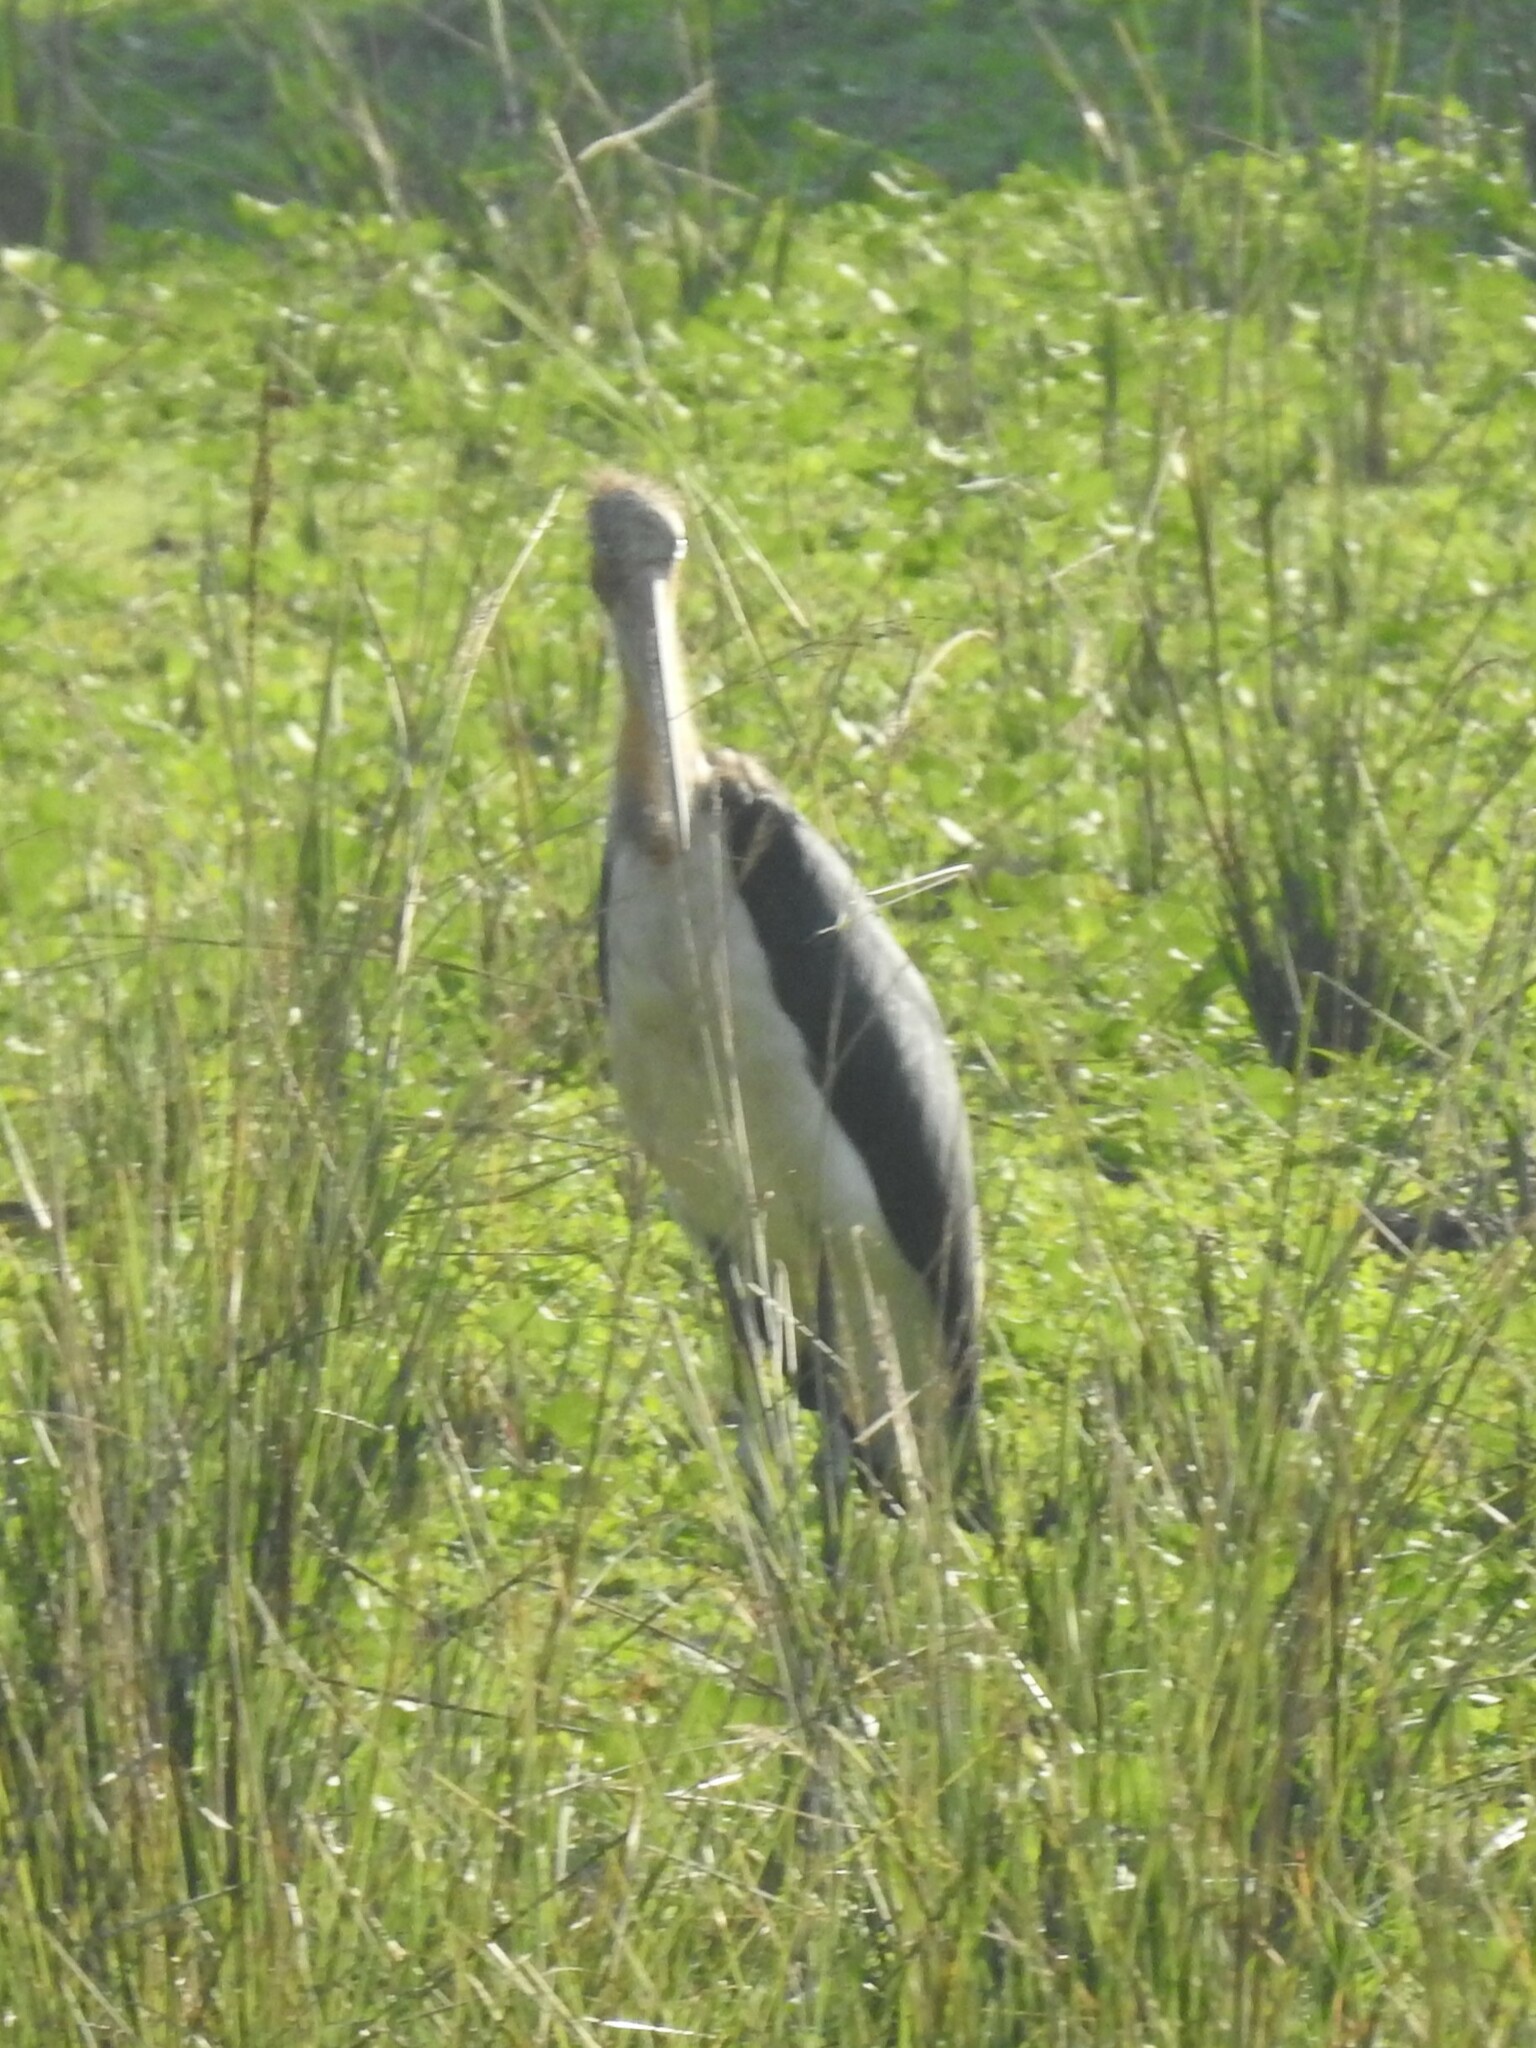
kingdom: Animalia
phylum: Chordata
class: Aves
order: Ciconiiformes
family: Ciconiidae
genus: Leptoptilos
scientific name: Leptoptilos javanicus
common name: Lesser adjutant
